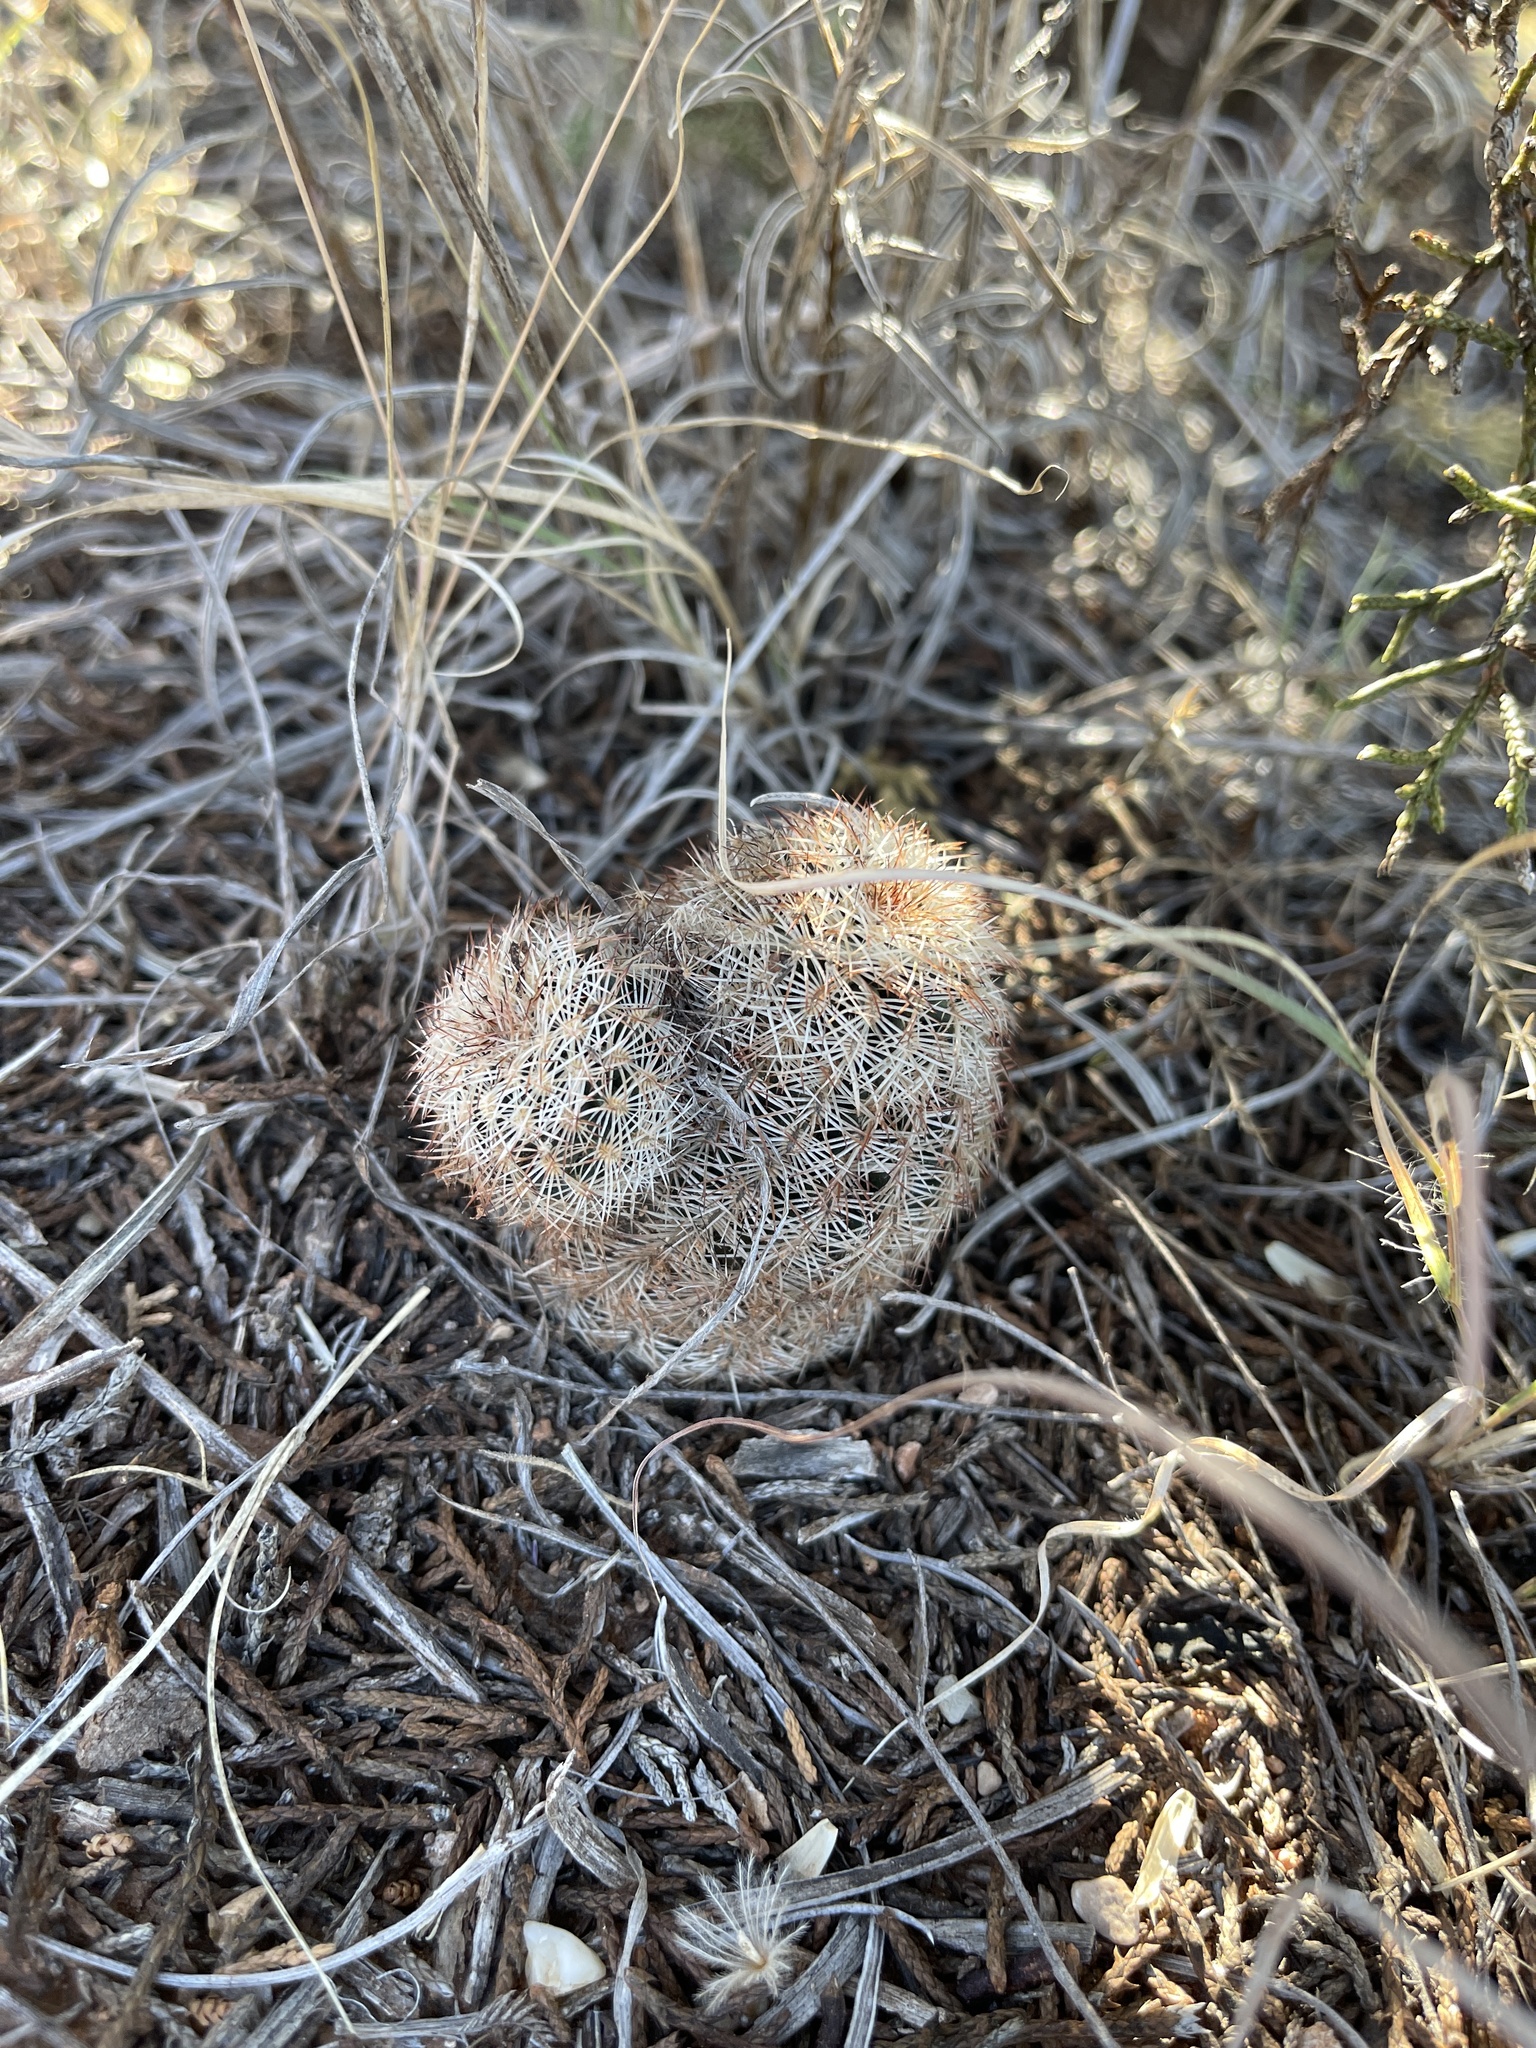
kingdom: Plantae
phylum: Tracheophyta
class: Magnoliopsida
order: Caryophyllales
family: Cactaceae
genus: Echinocereus
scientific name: Echinocereus reichenbachii
